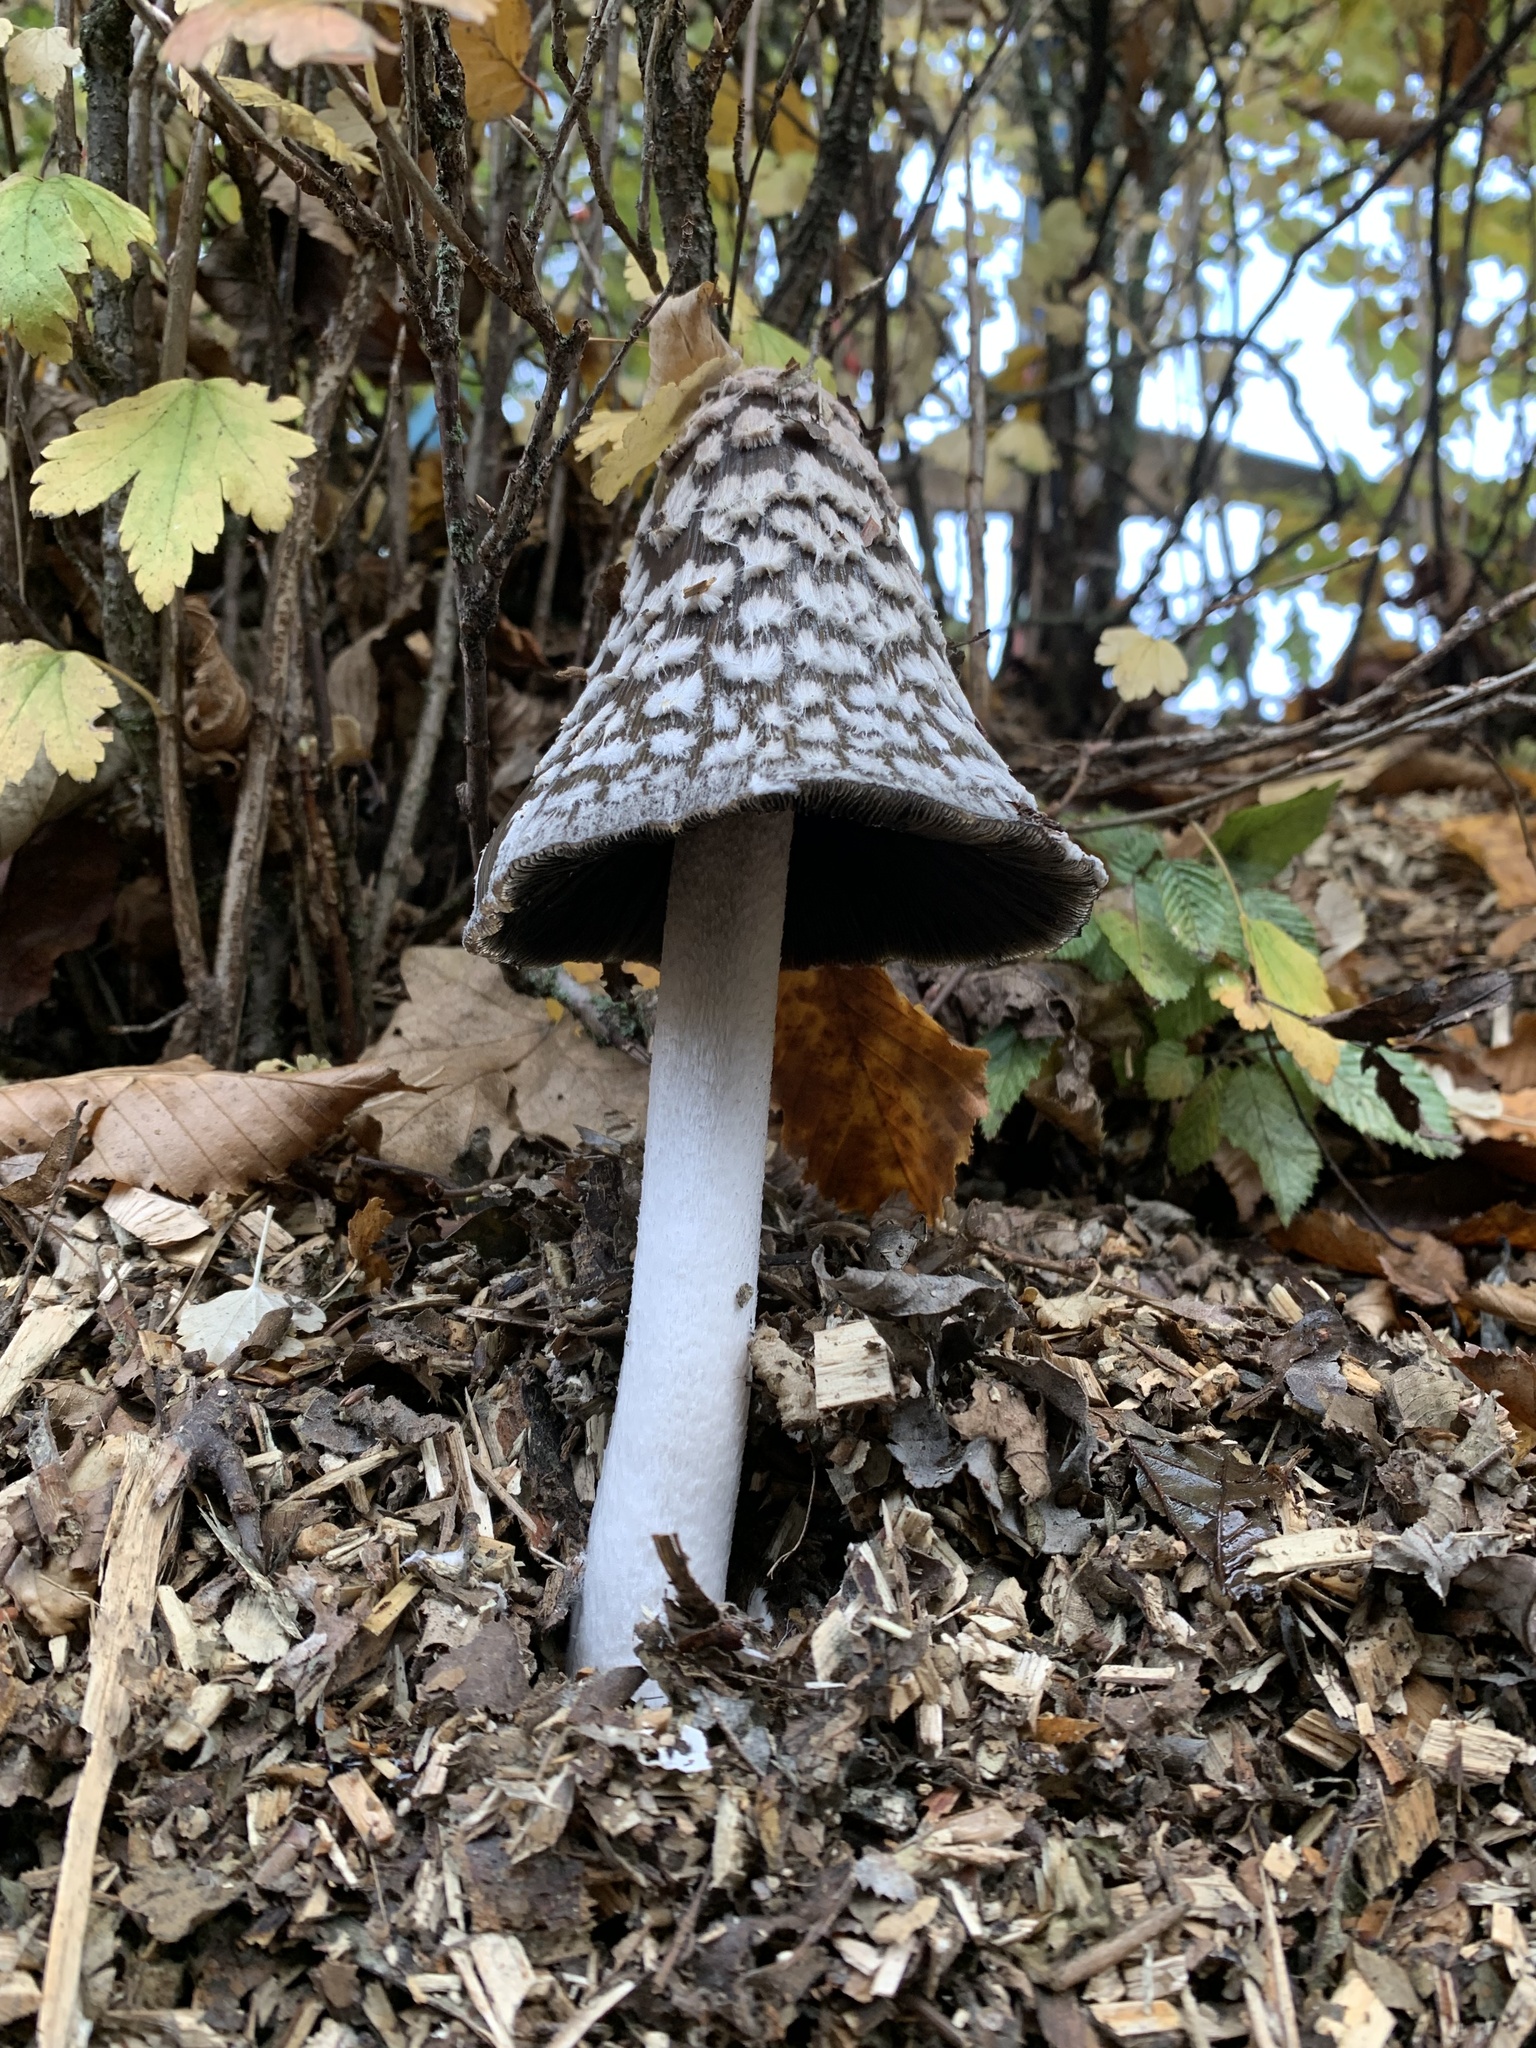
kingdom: Fungi
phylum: Basidiomycota
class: Agaricomycetes
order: Agaricales
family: Psathyrellaceae
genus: Coprinopsis
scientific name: Coprinopsis picacea
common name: Magpie inkcap
